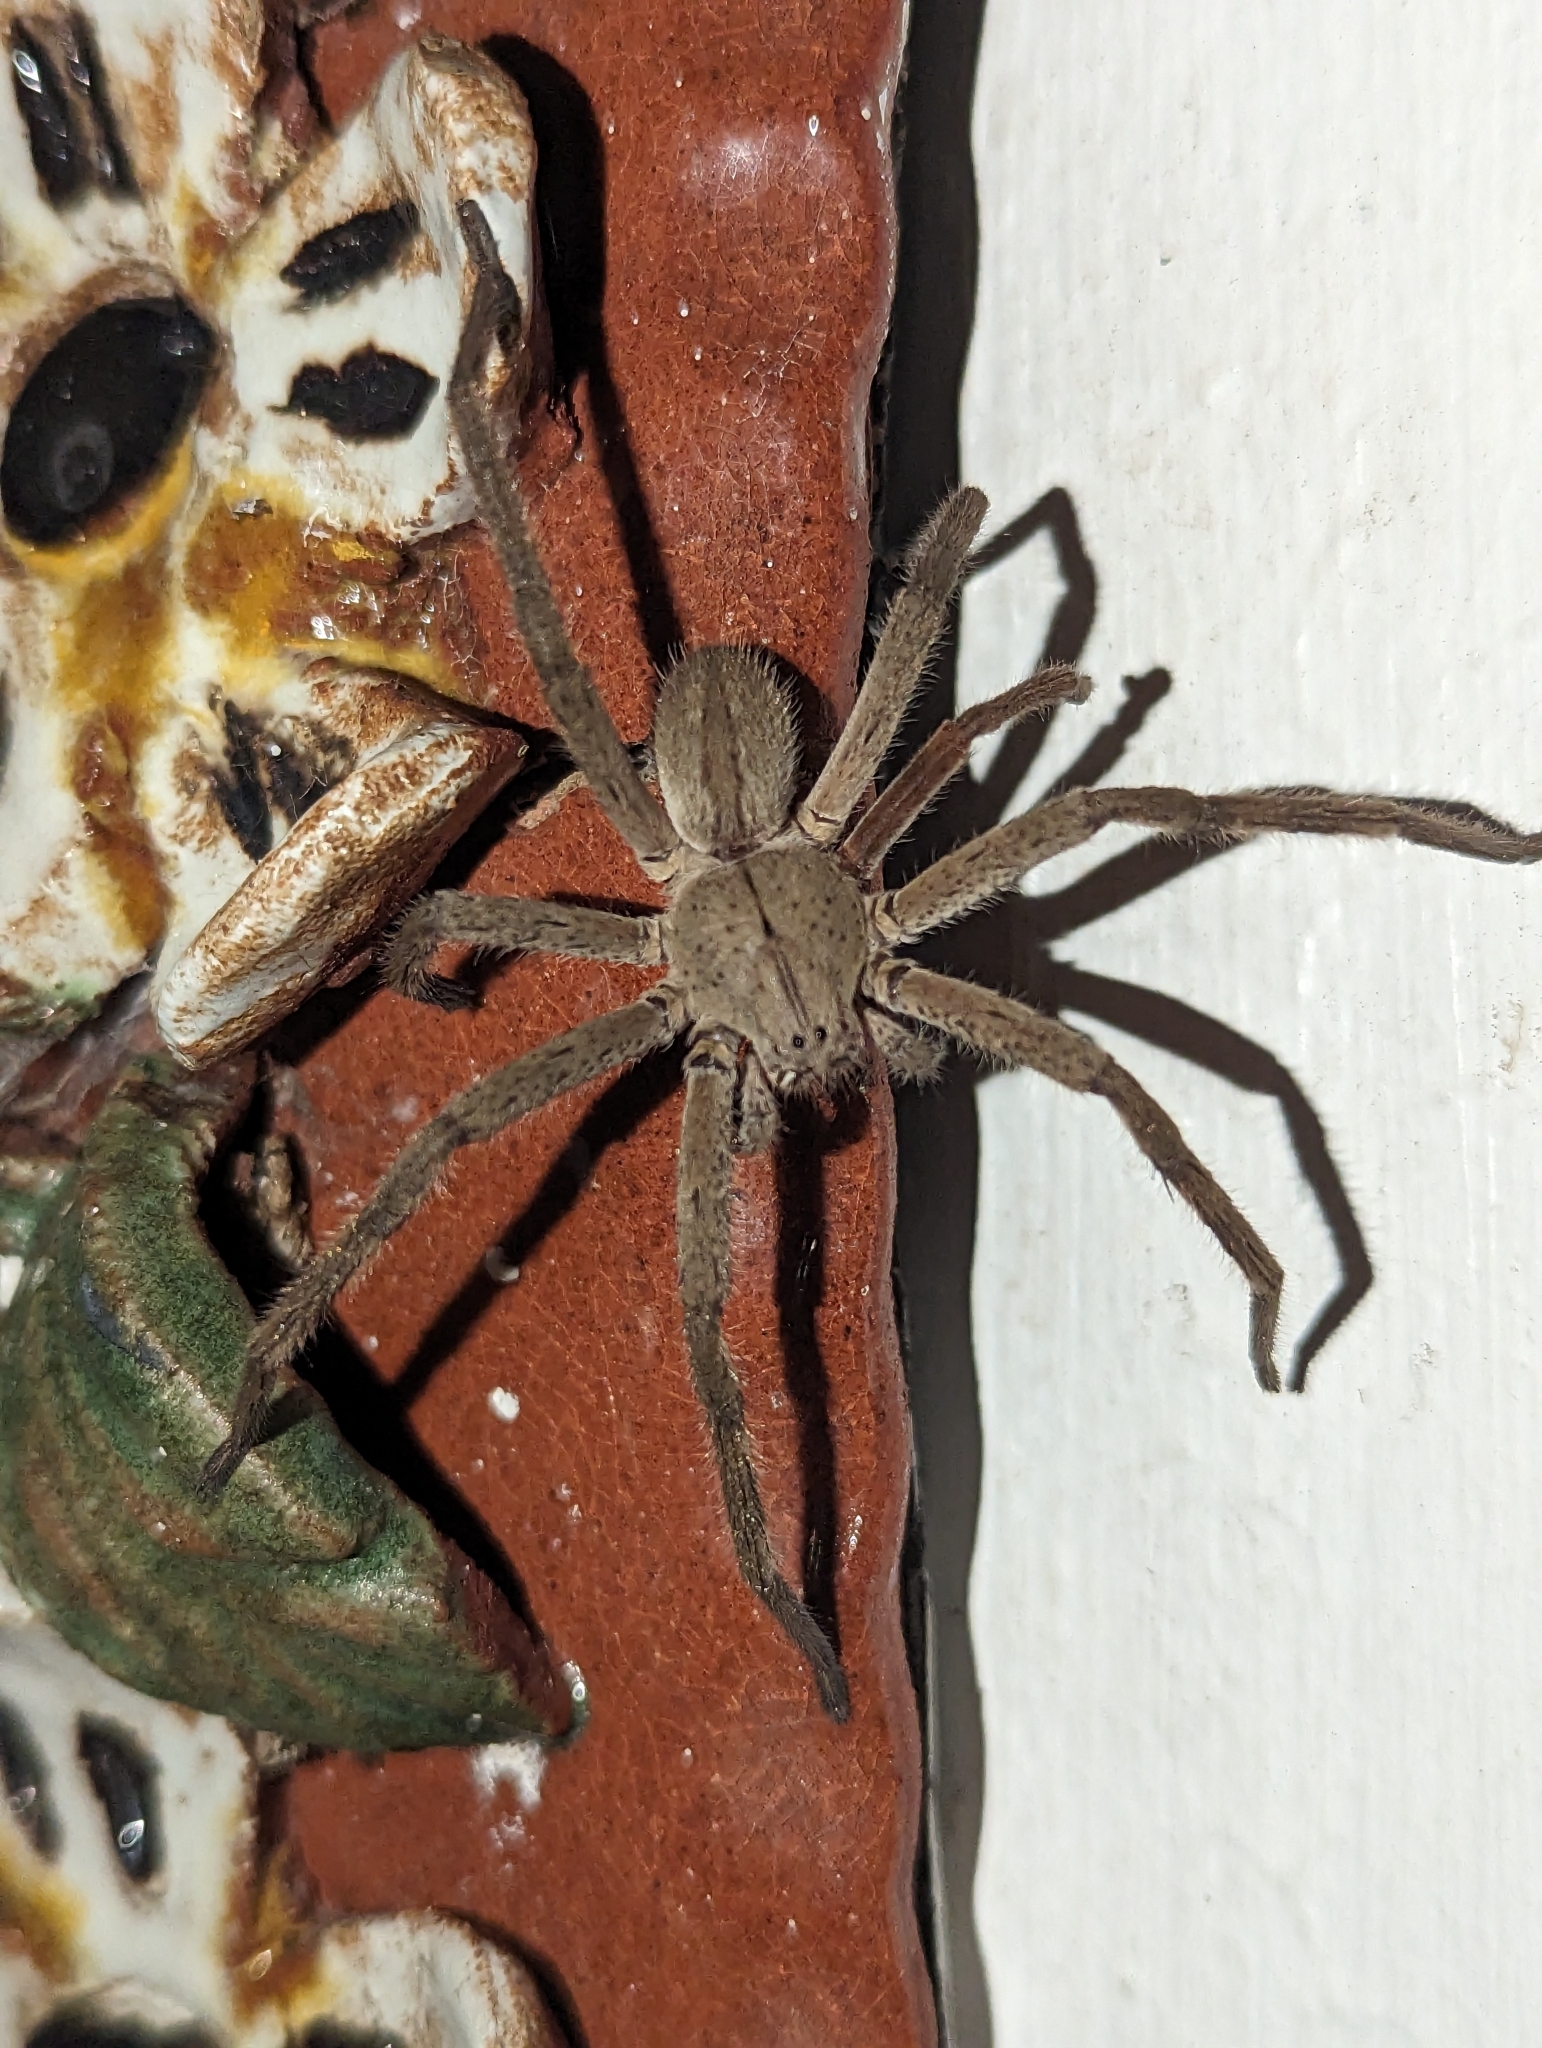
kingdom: Animalia
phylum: Arthropoda
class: Arachnida
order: Araneae
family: Sparassidae
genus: Palystes
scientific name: Palystes castaneus
